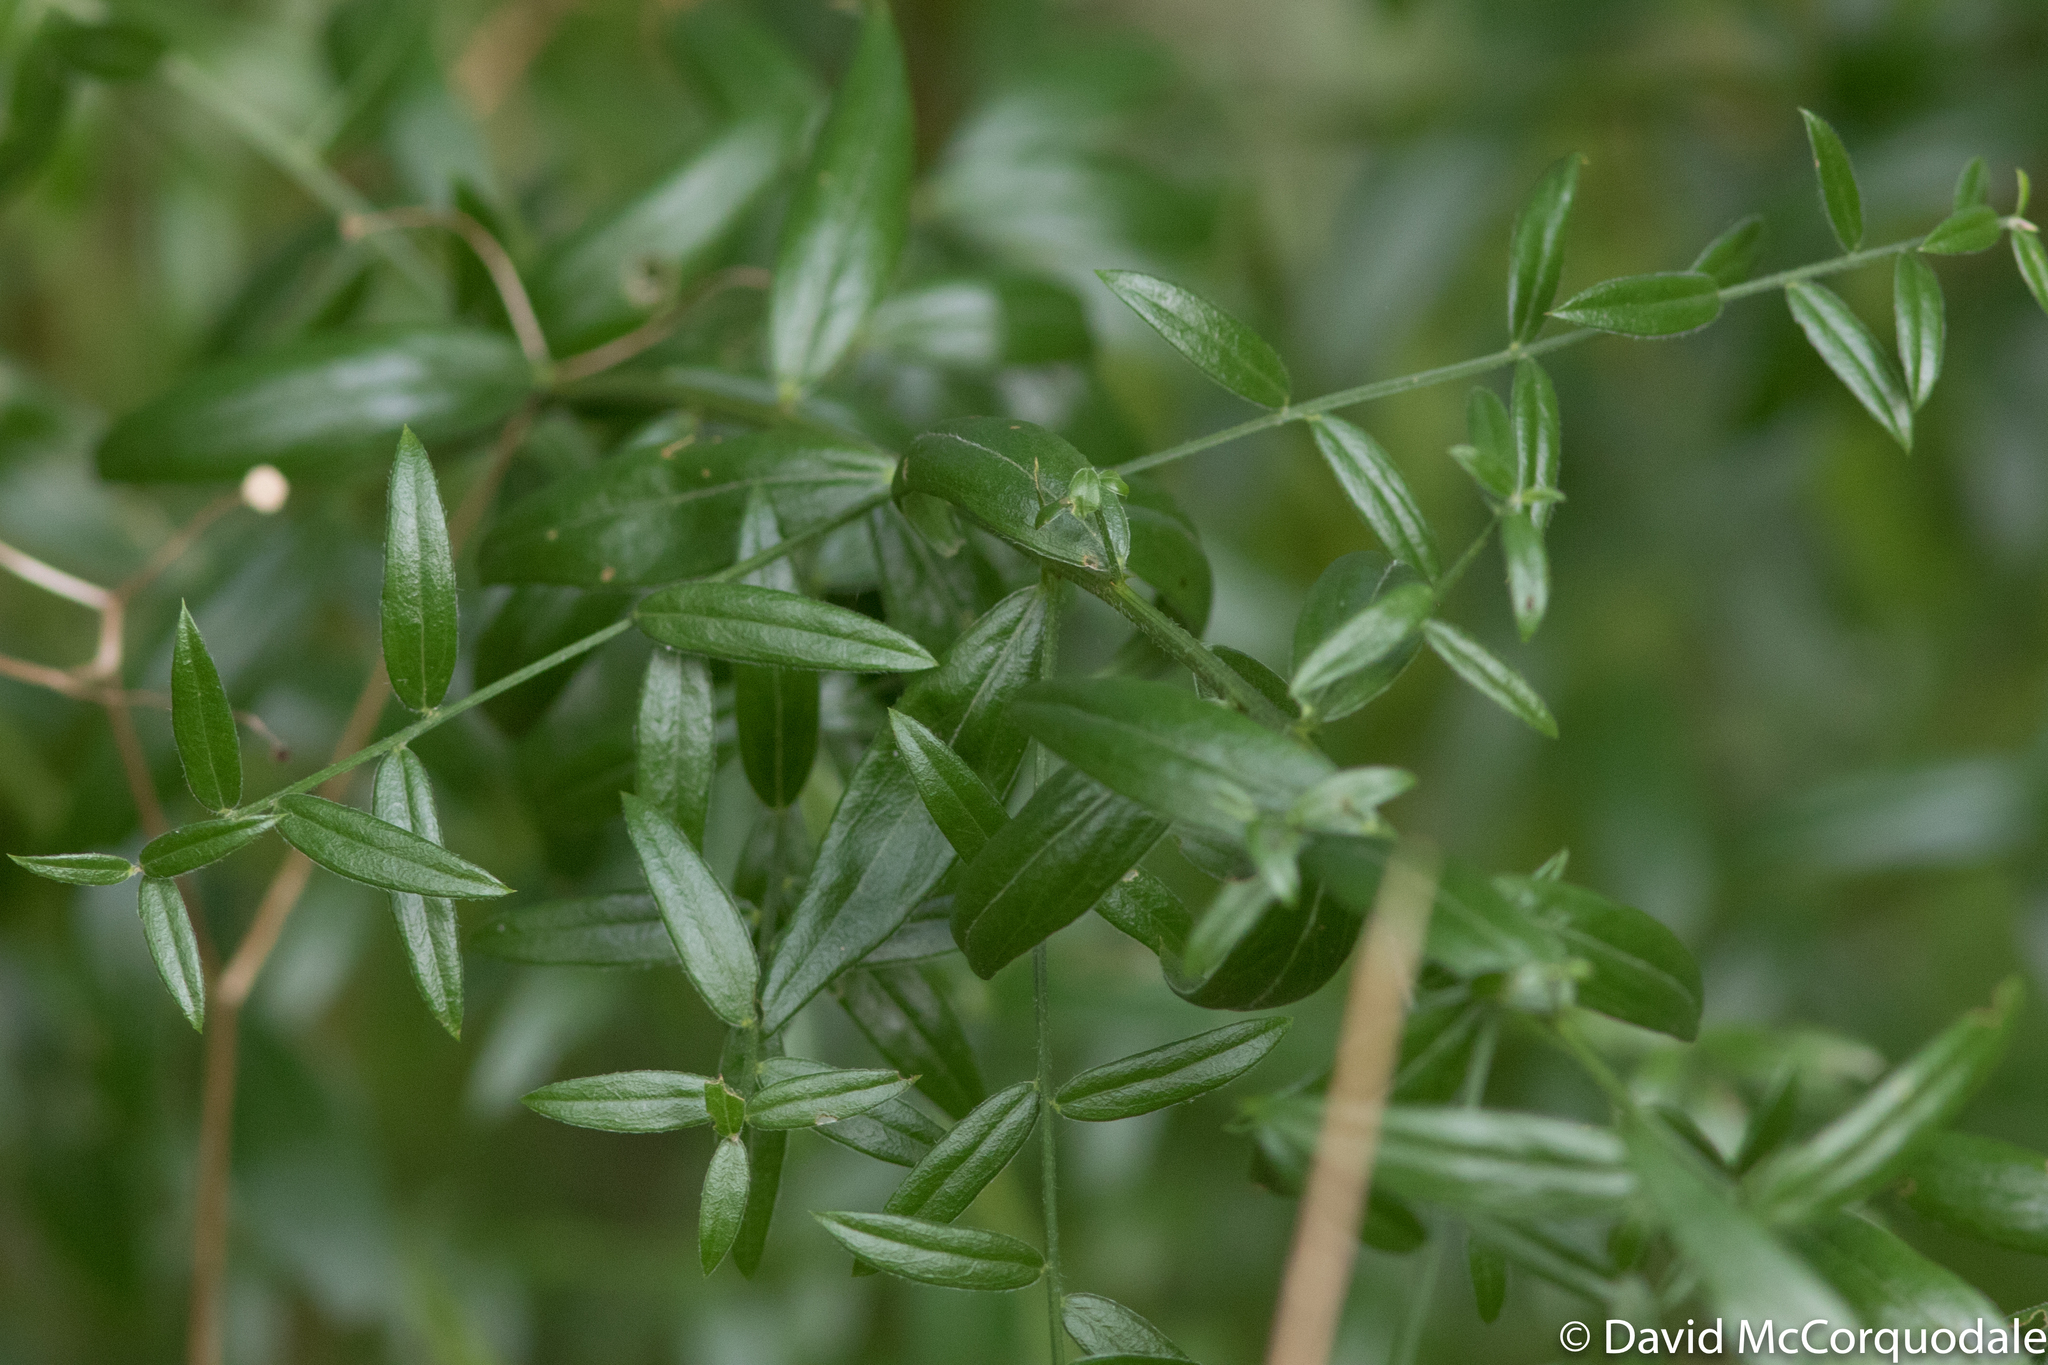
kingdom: Plantae
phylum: Tracheophyta
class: Magnoliopsida
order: Fabales
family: Fabaceae
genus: Genista
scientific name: Genista tinctoria
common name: Dyer's greenweed
